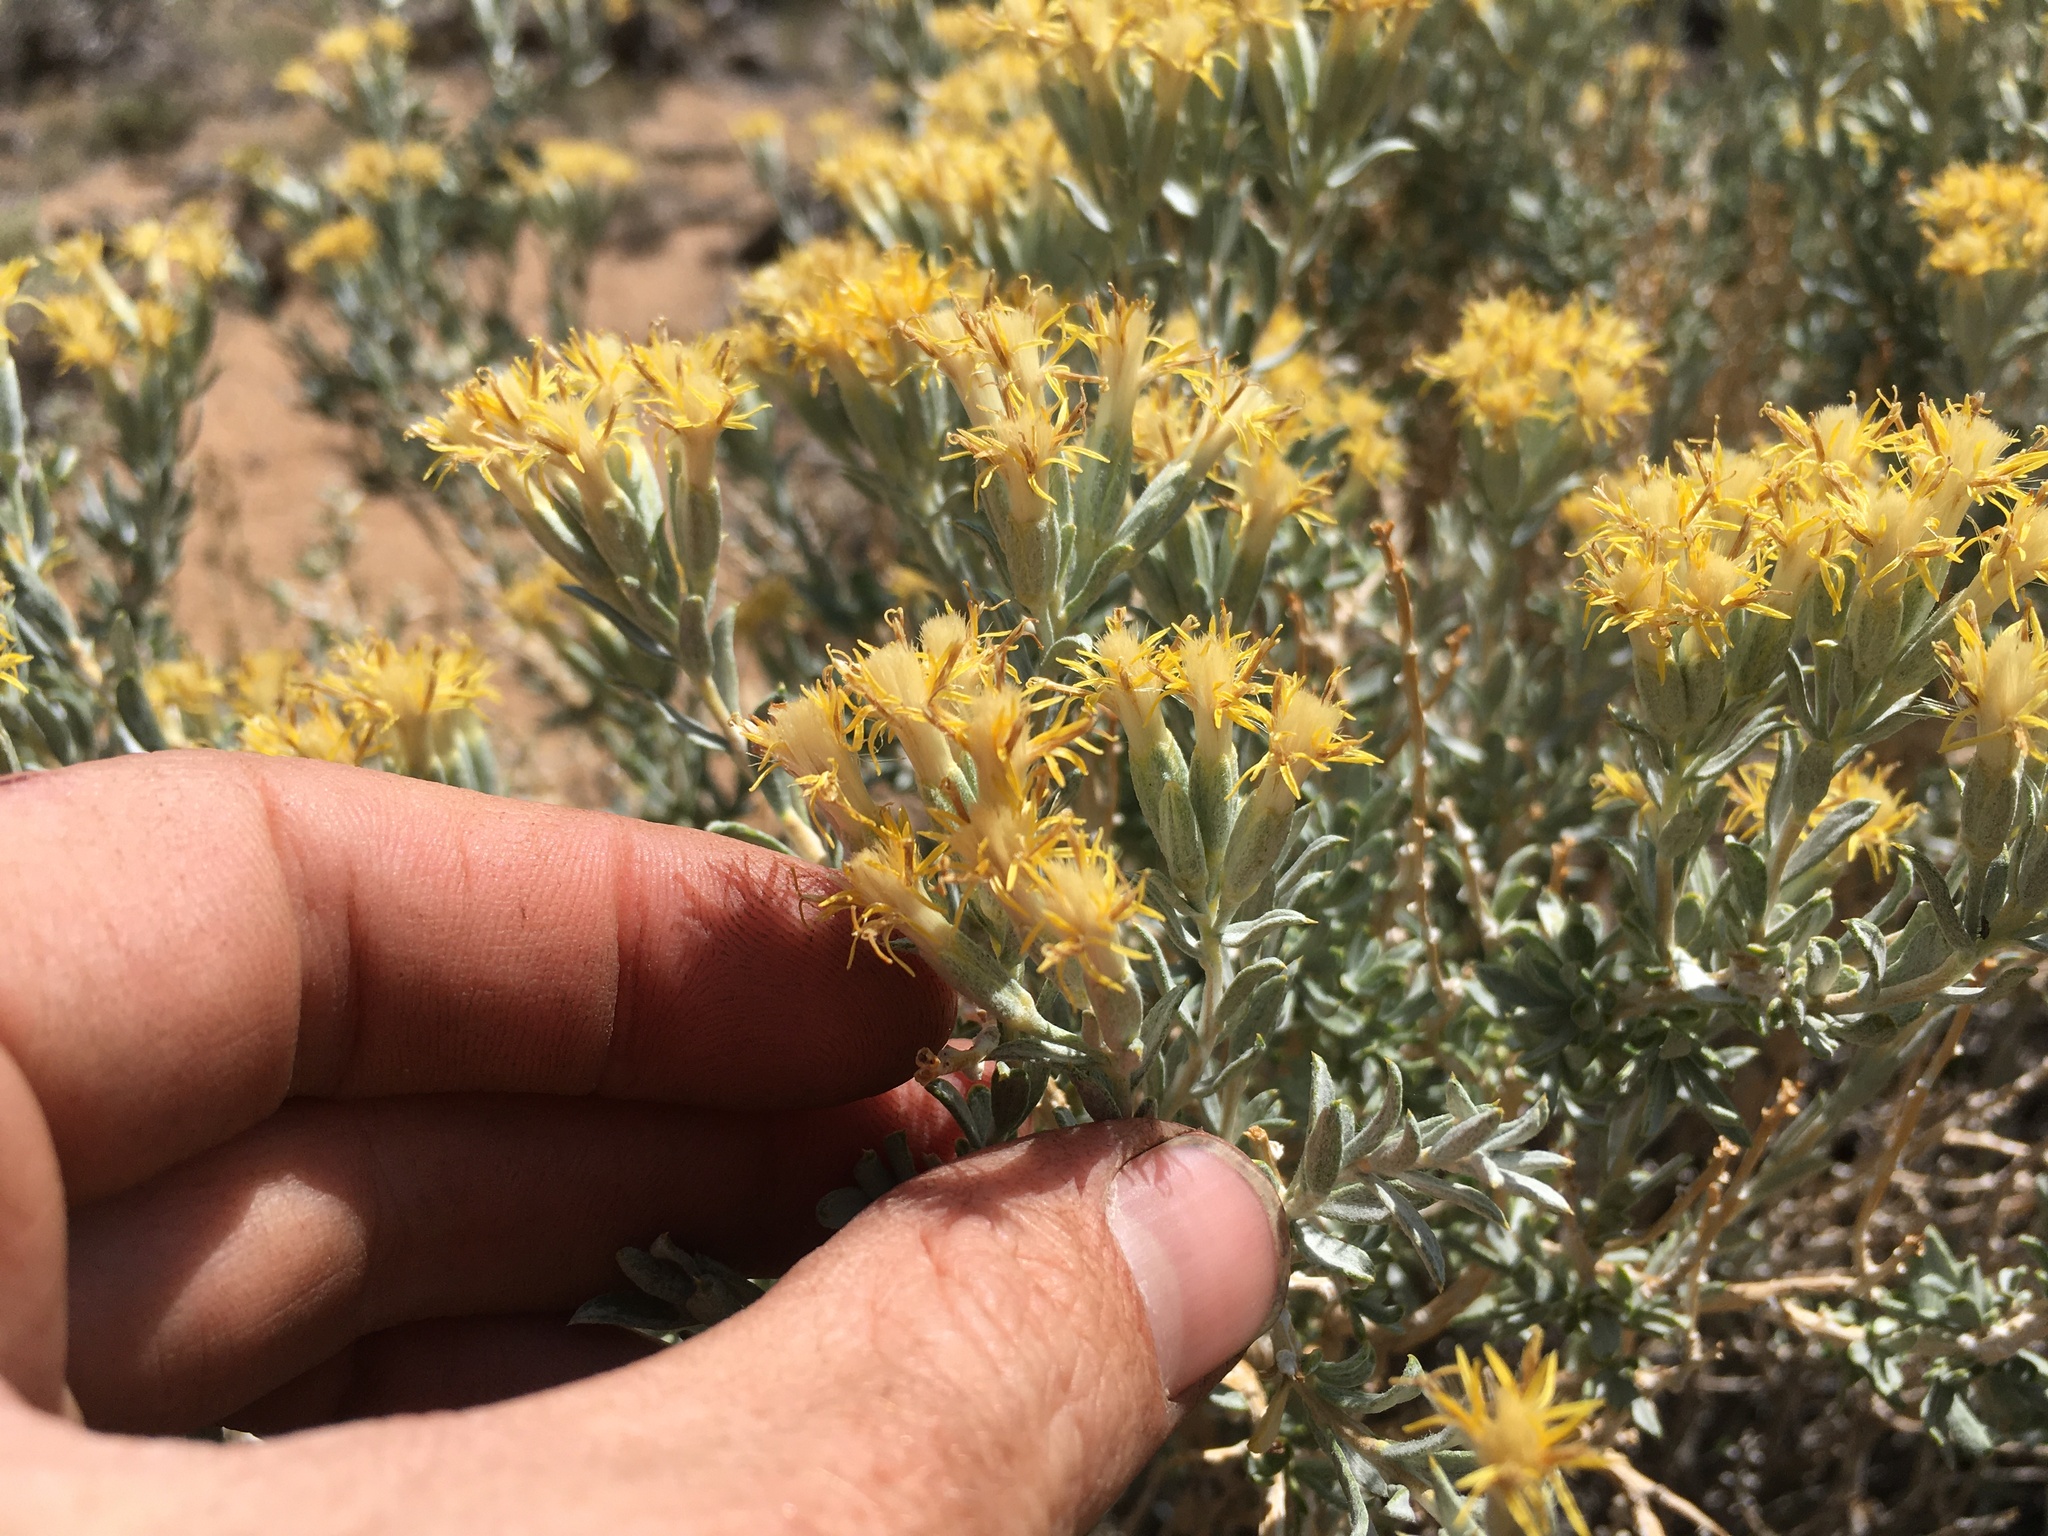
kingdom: Plantae
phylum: Tracheophyta
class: Magnoliopsida
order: Asterales
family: Asteraceae
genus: Tetradymia
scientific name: Tetradymia canescens
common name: Spineless horsebrush
